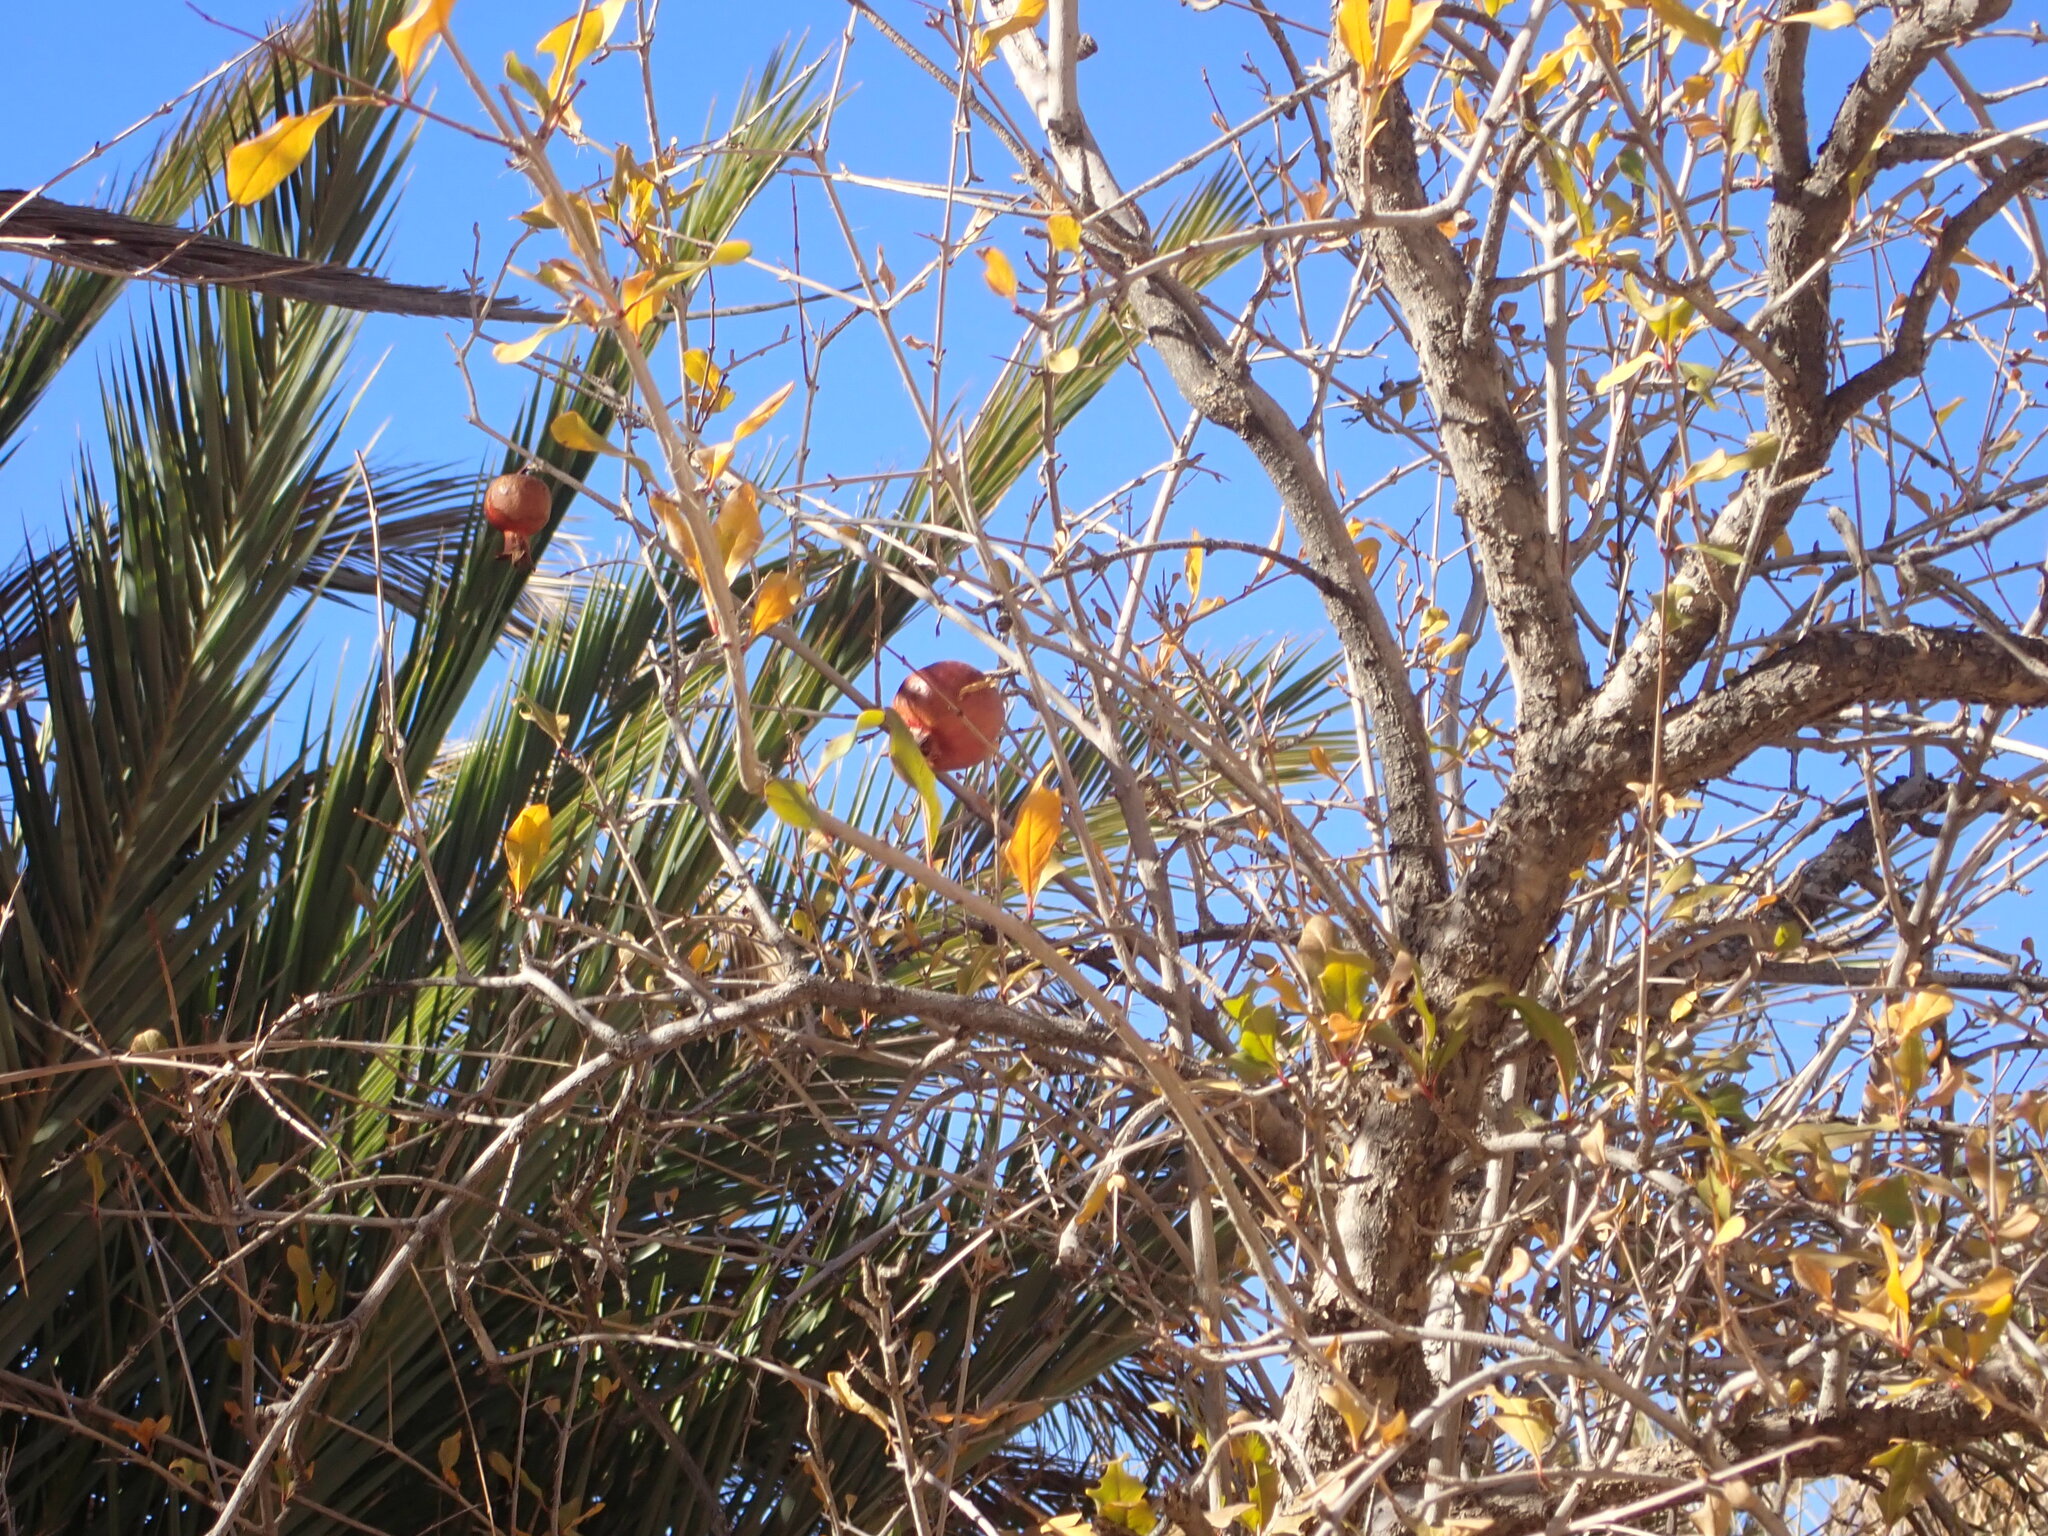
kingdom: Plantae
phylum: Tracheophyta
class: Magnoliopsida
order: Myrtales
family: Lythraceae
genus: Punica
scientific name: Punica granatum
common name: Pomegranate
